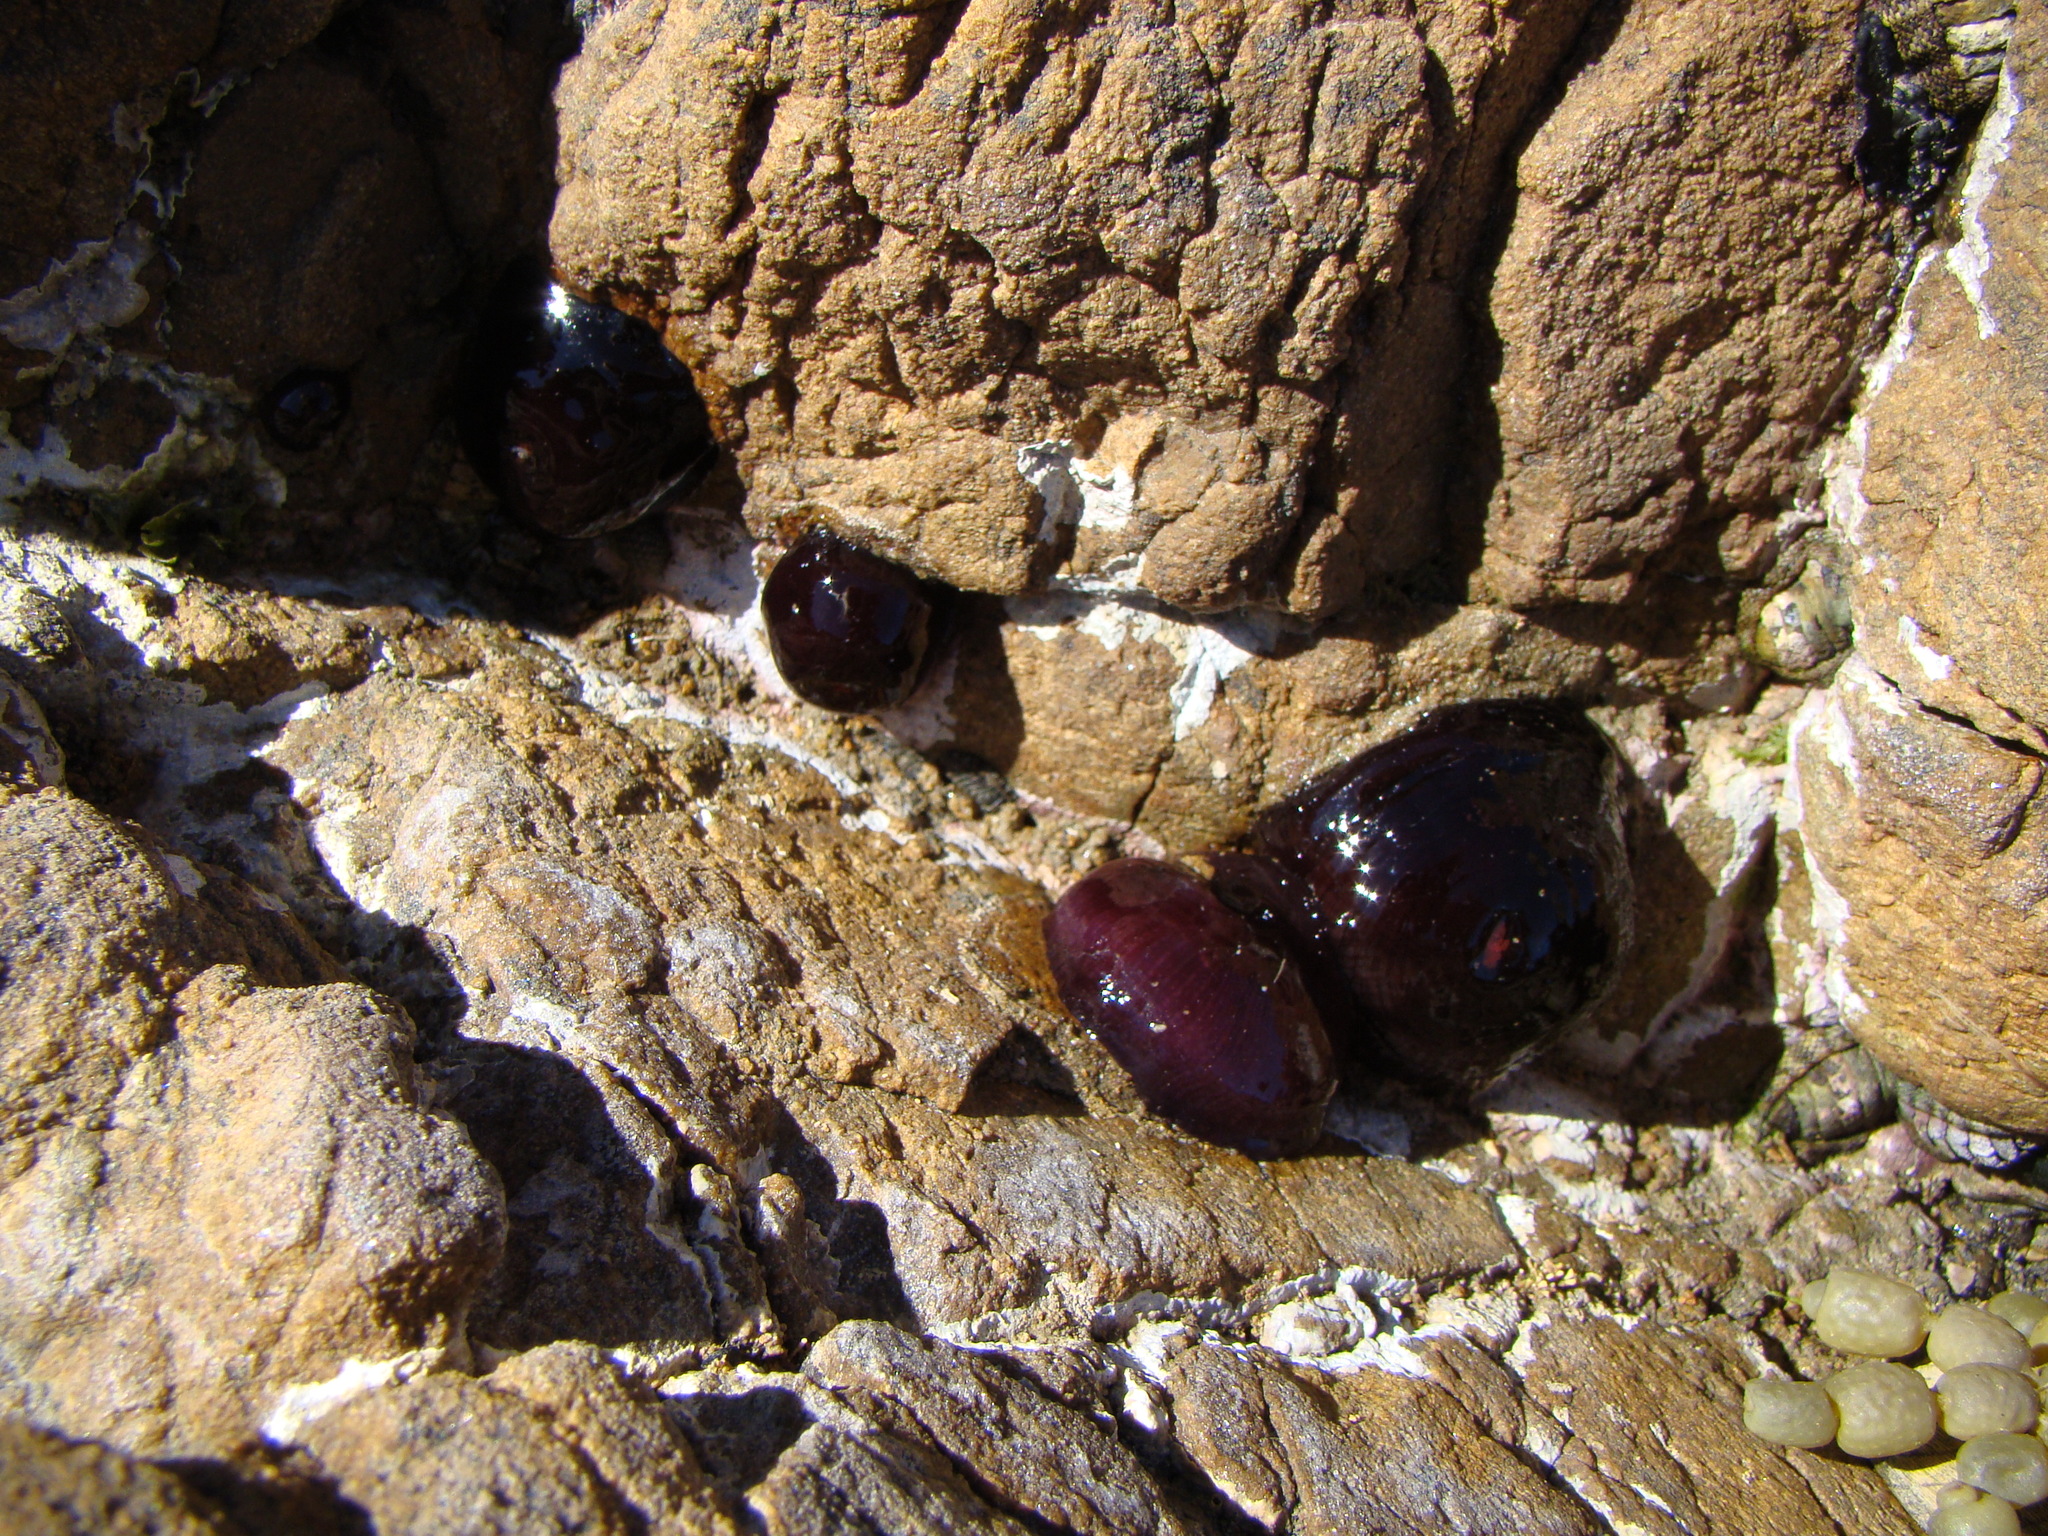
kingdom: Animalia
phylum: Cnidaria
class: Anthozoa
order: Actiniaria
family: Actiniidae
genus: Actinia
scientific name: Actinia tenebrosa
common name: Waratah anemone
